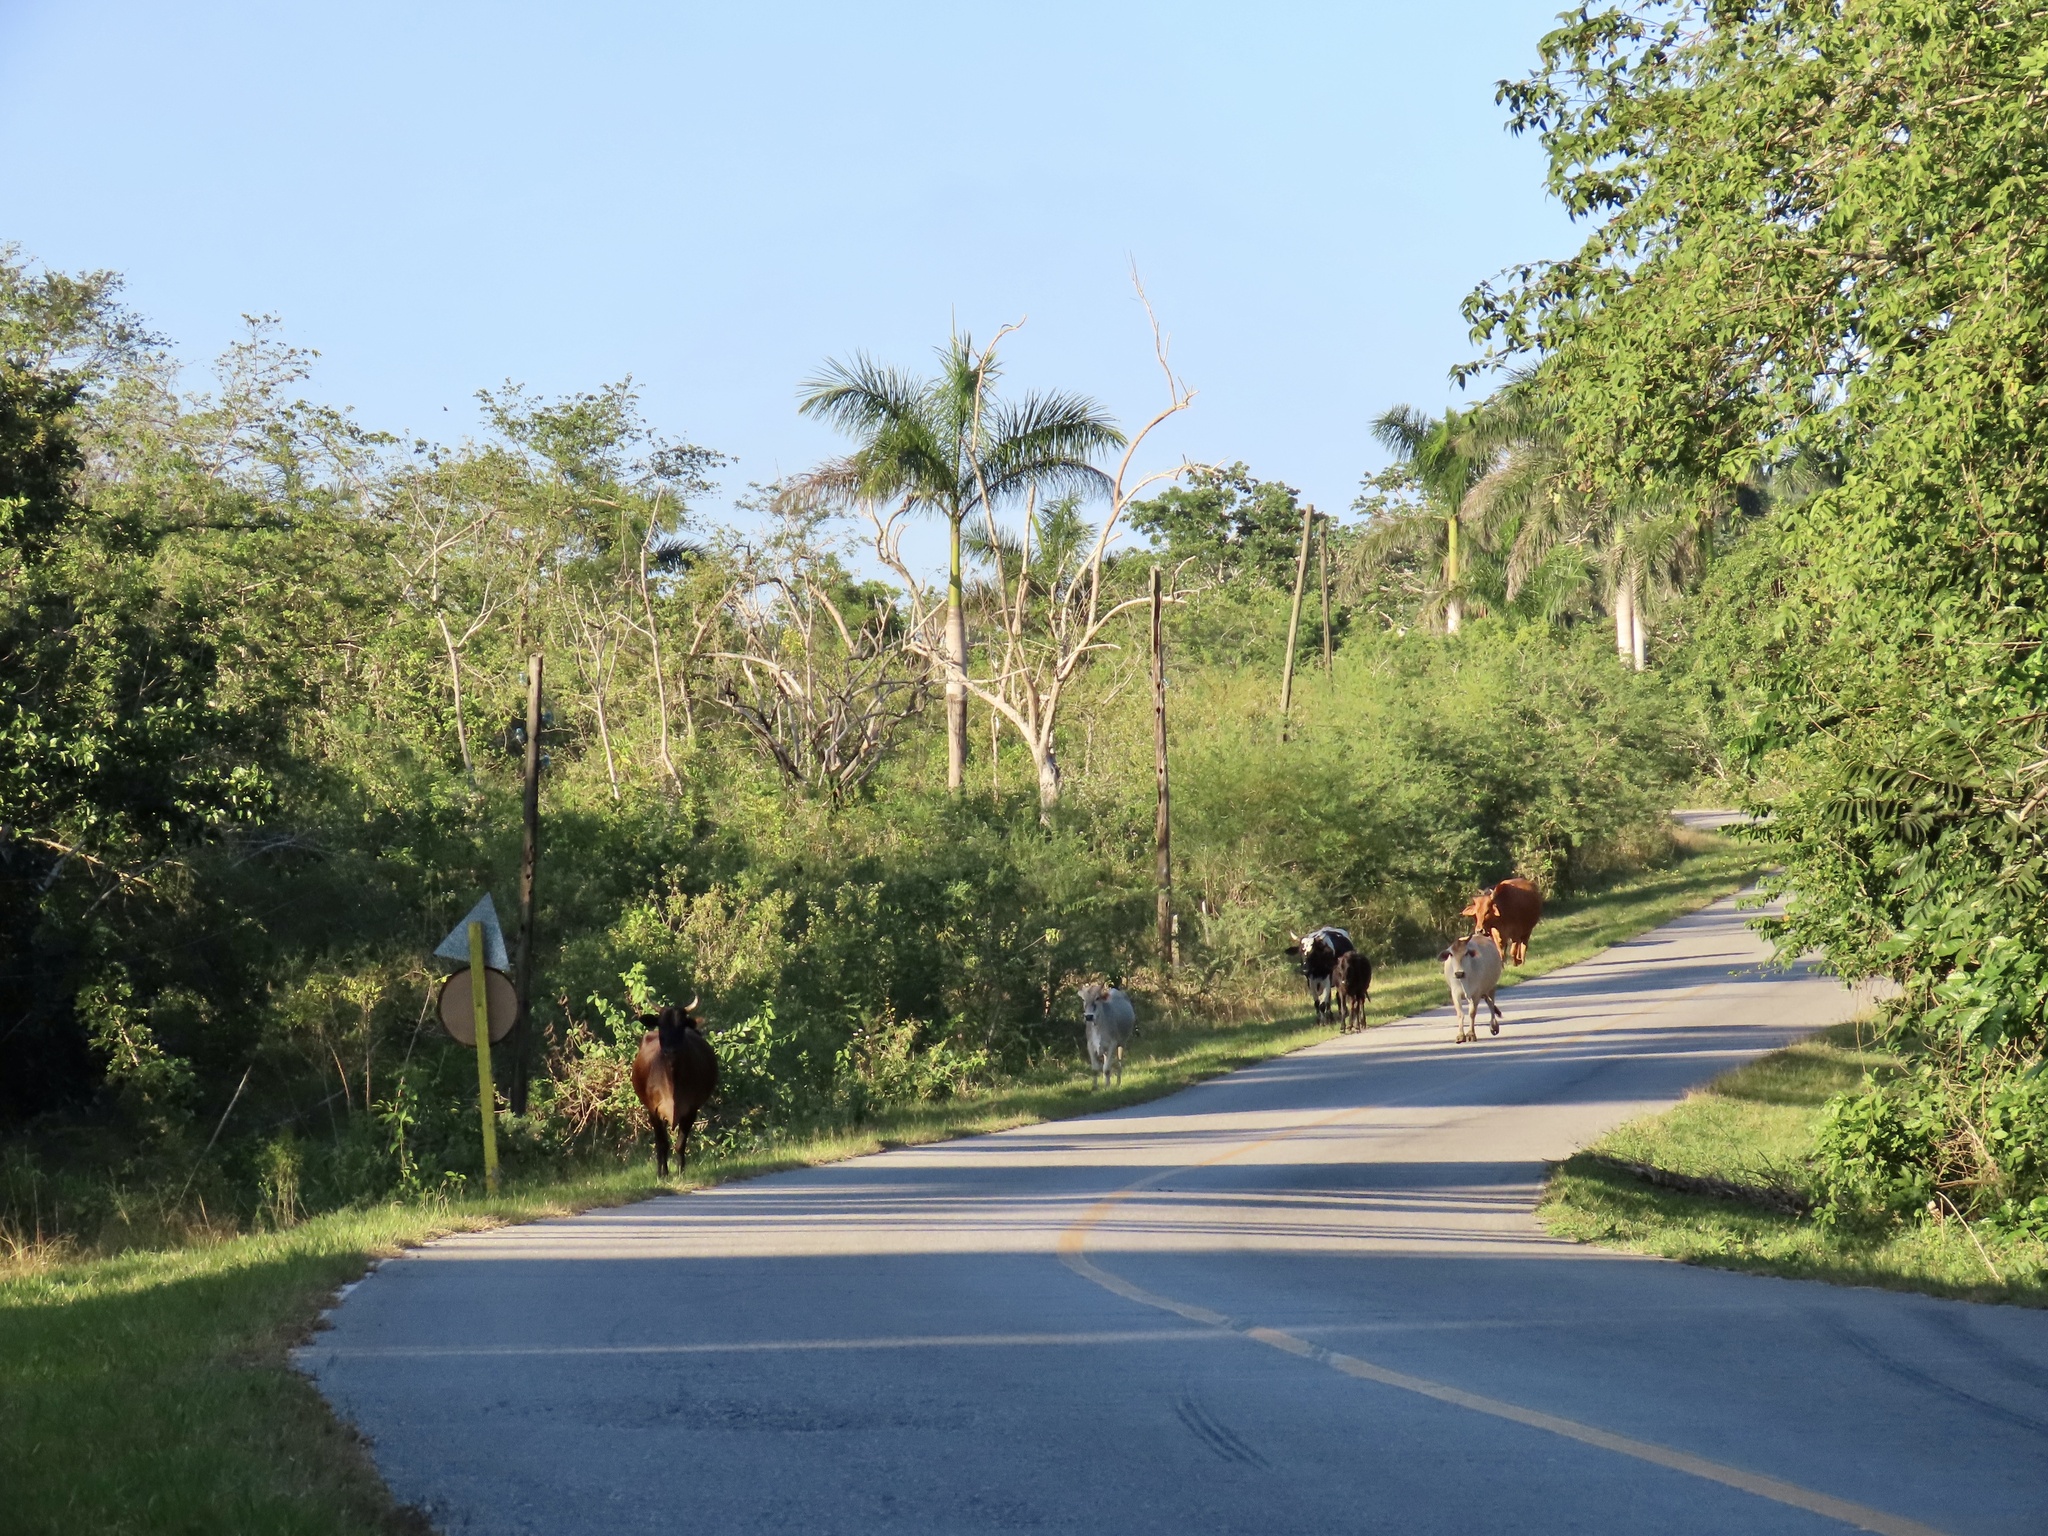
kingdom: Animalia
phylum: Chordata
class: Aves
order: Passeriformes
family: Turdidae
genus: Myadestes
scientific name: Myadestes elisabeth
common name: Cuban solitaire
